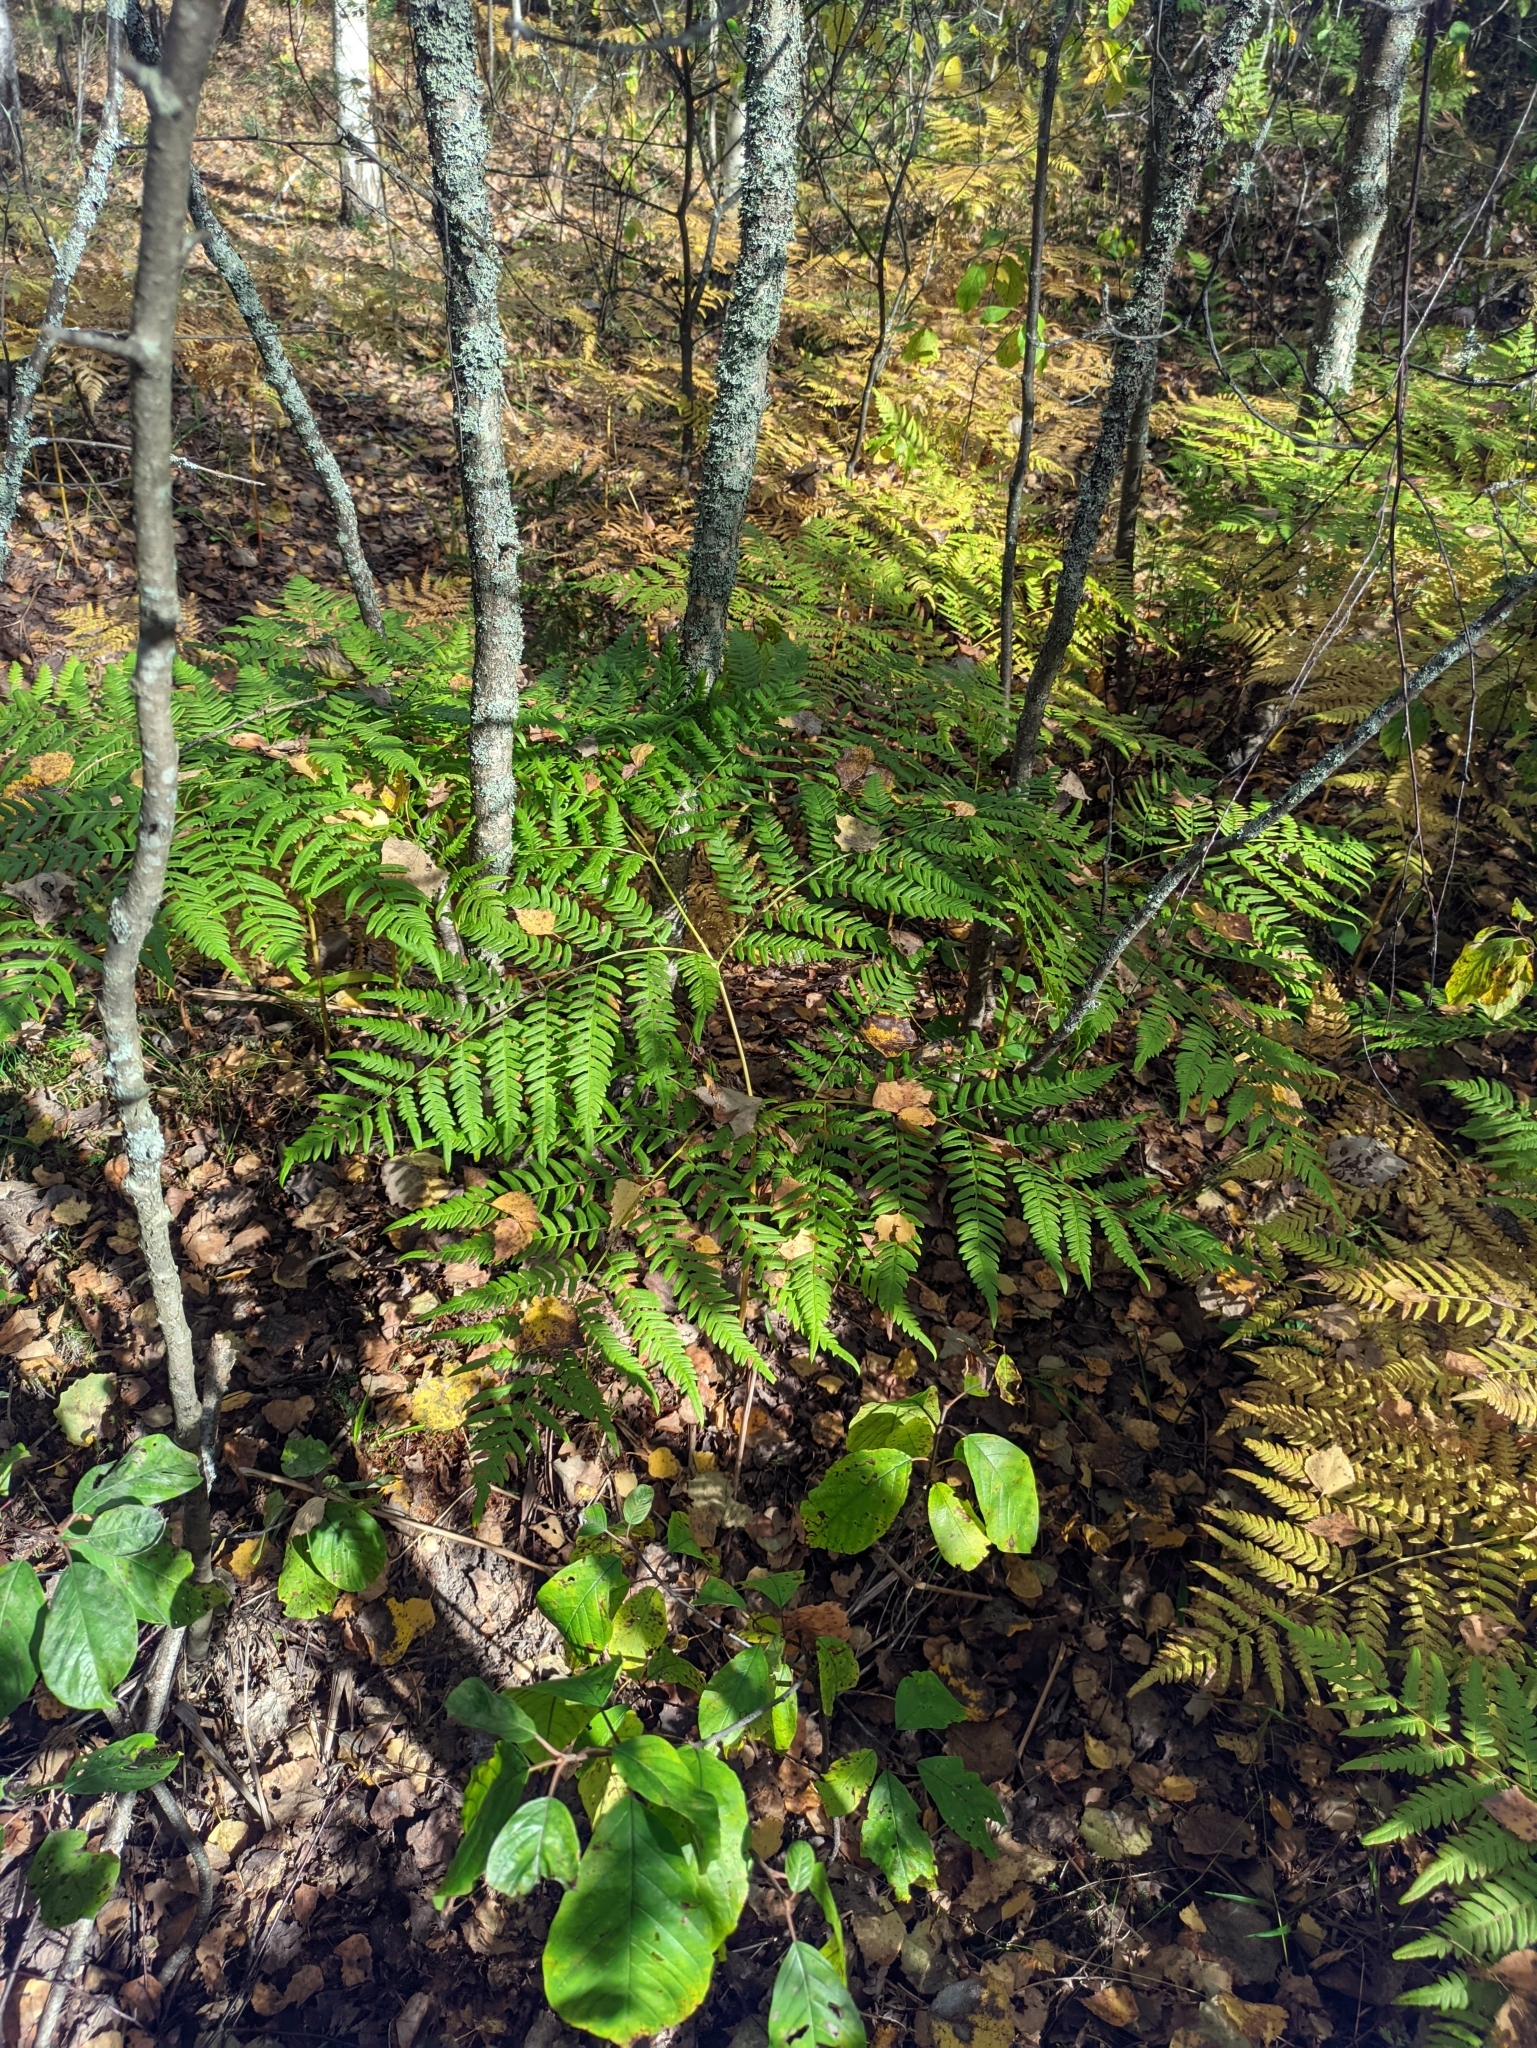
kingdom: Plantae
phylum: Tracheophyta
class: Polypodiopsida
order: Polypodiales
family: Dennstaedtiaceae
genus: Pteridium
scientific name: Pteridium aquilinum
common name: Bracken
